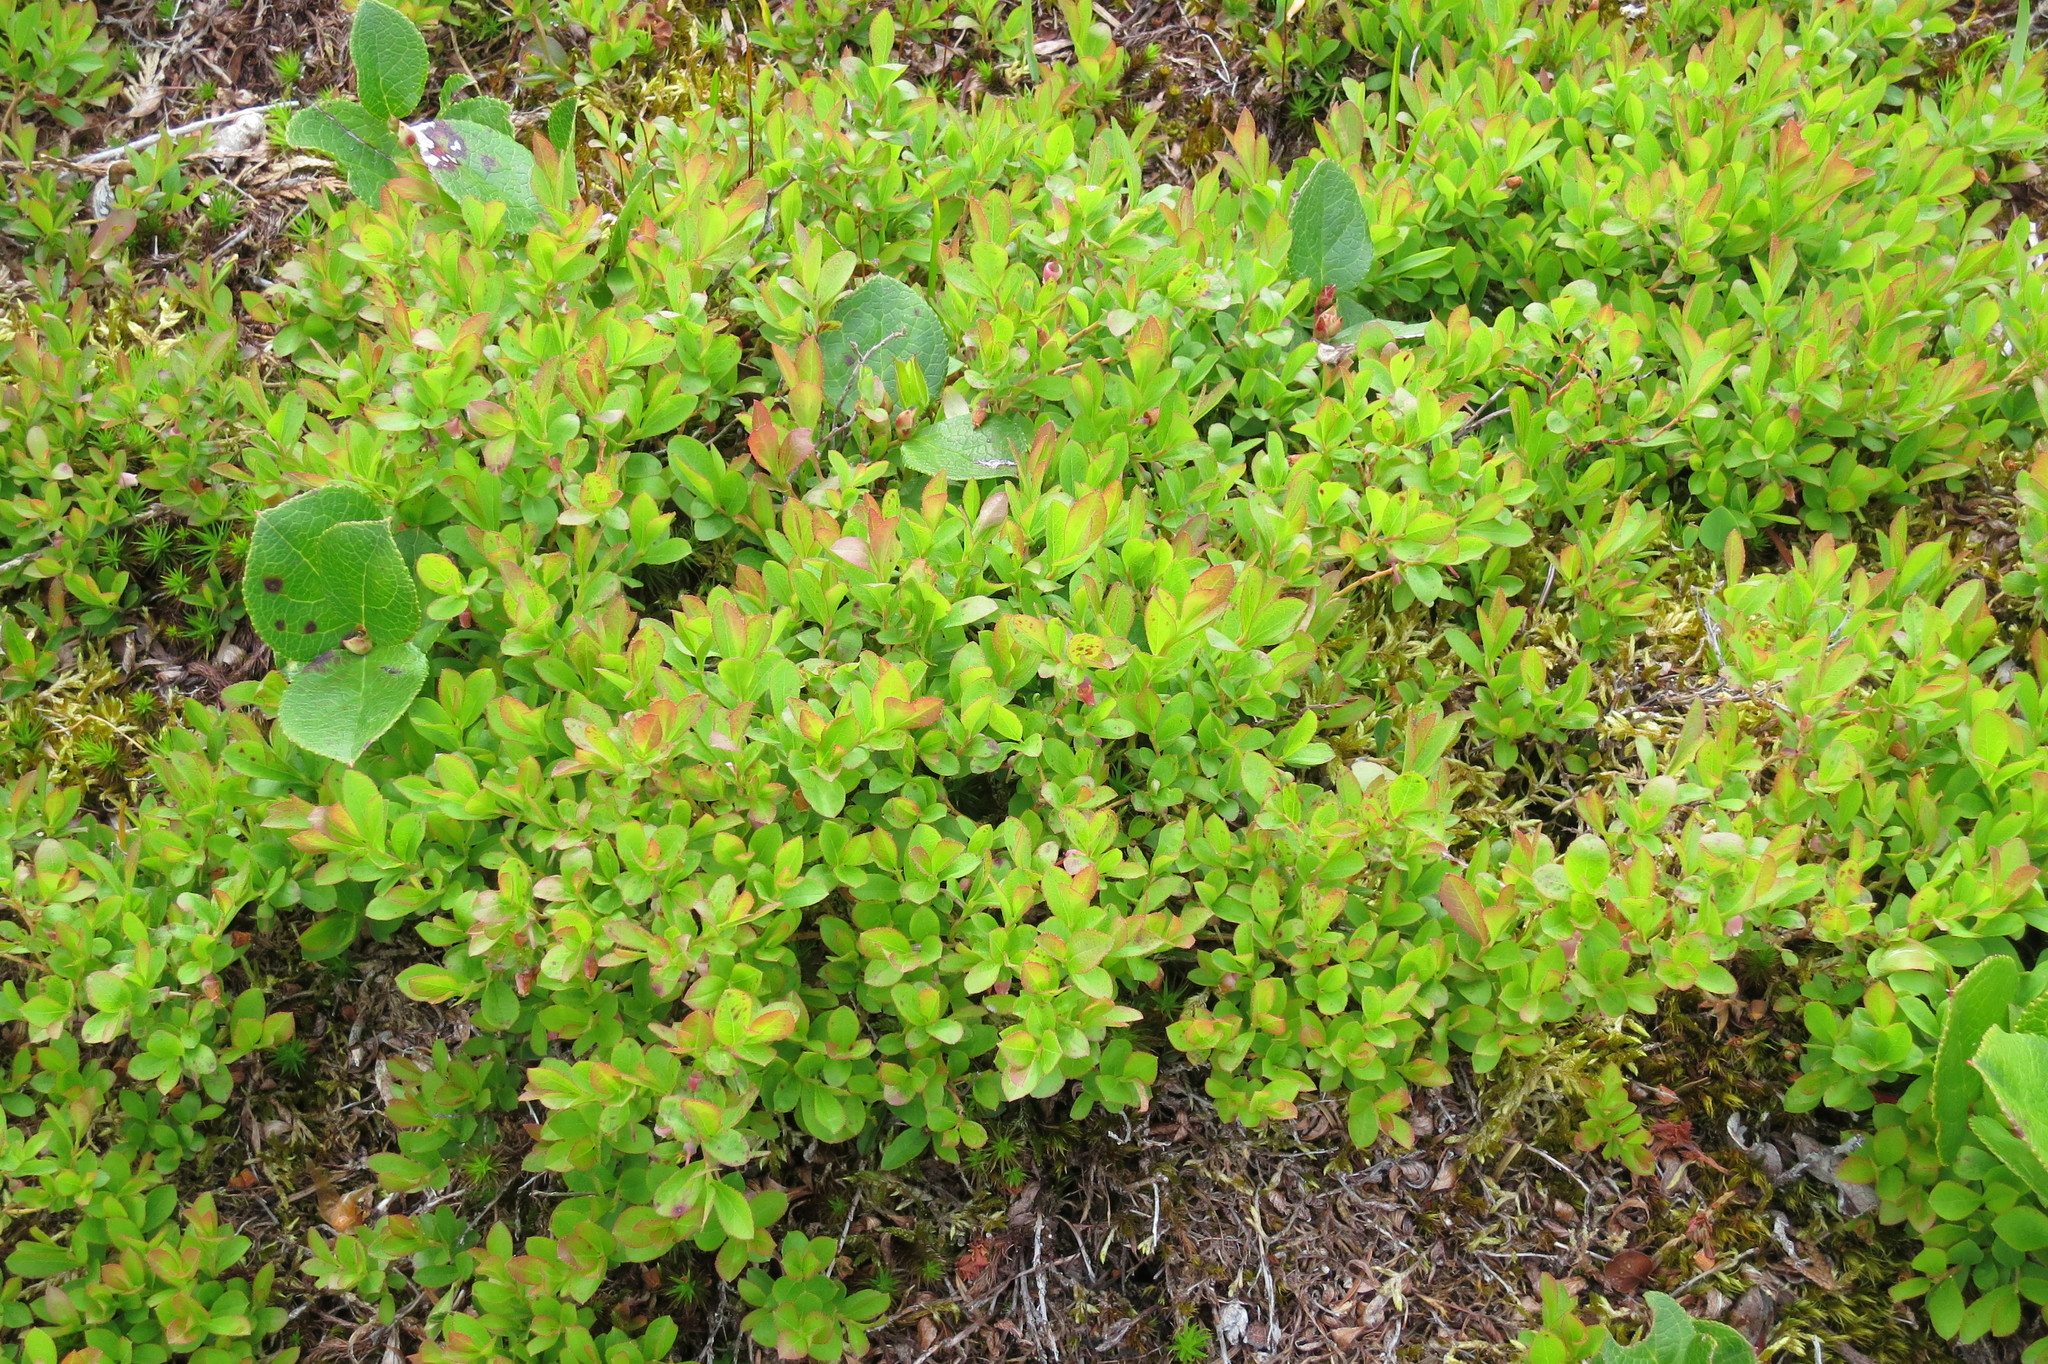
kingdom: Plantae
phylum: Tracheophyta
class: Magnoliopsida
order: Ericales
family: Ericaceae
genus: Vaccinium
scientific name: Vaccinium cespitosum
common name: Dwarf bilberry
